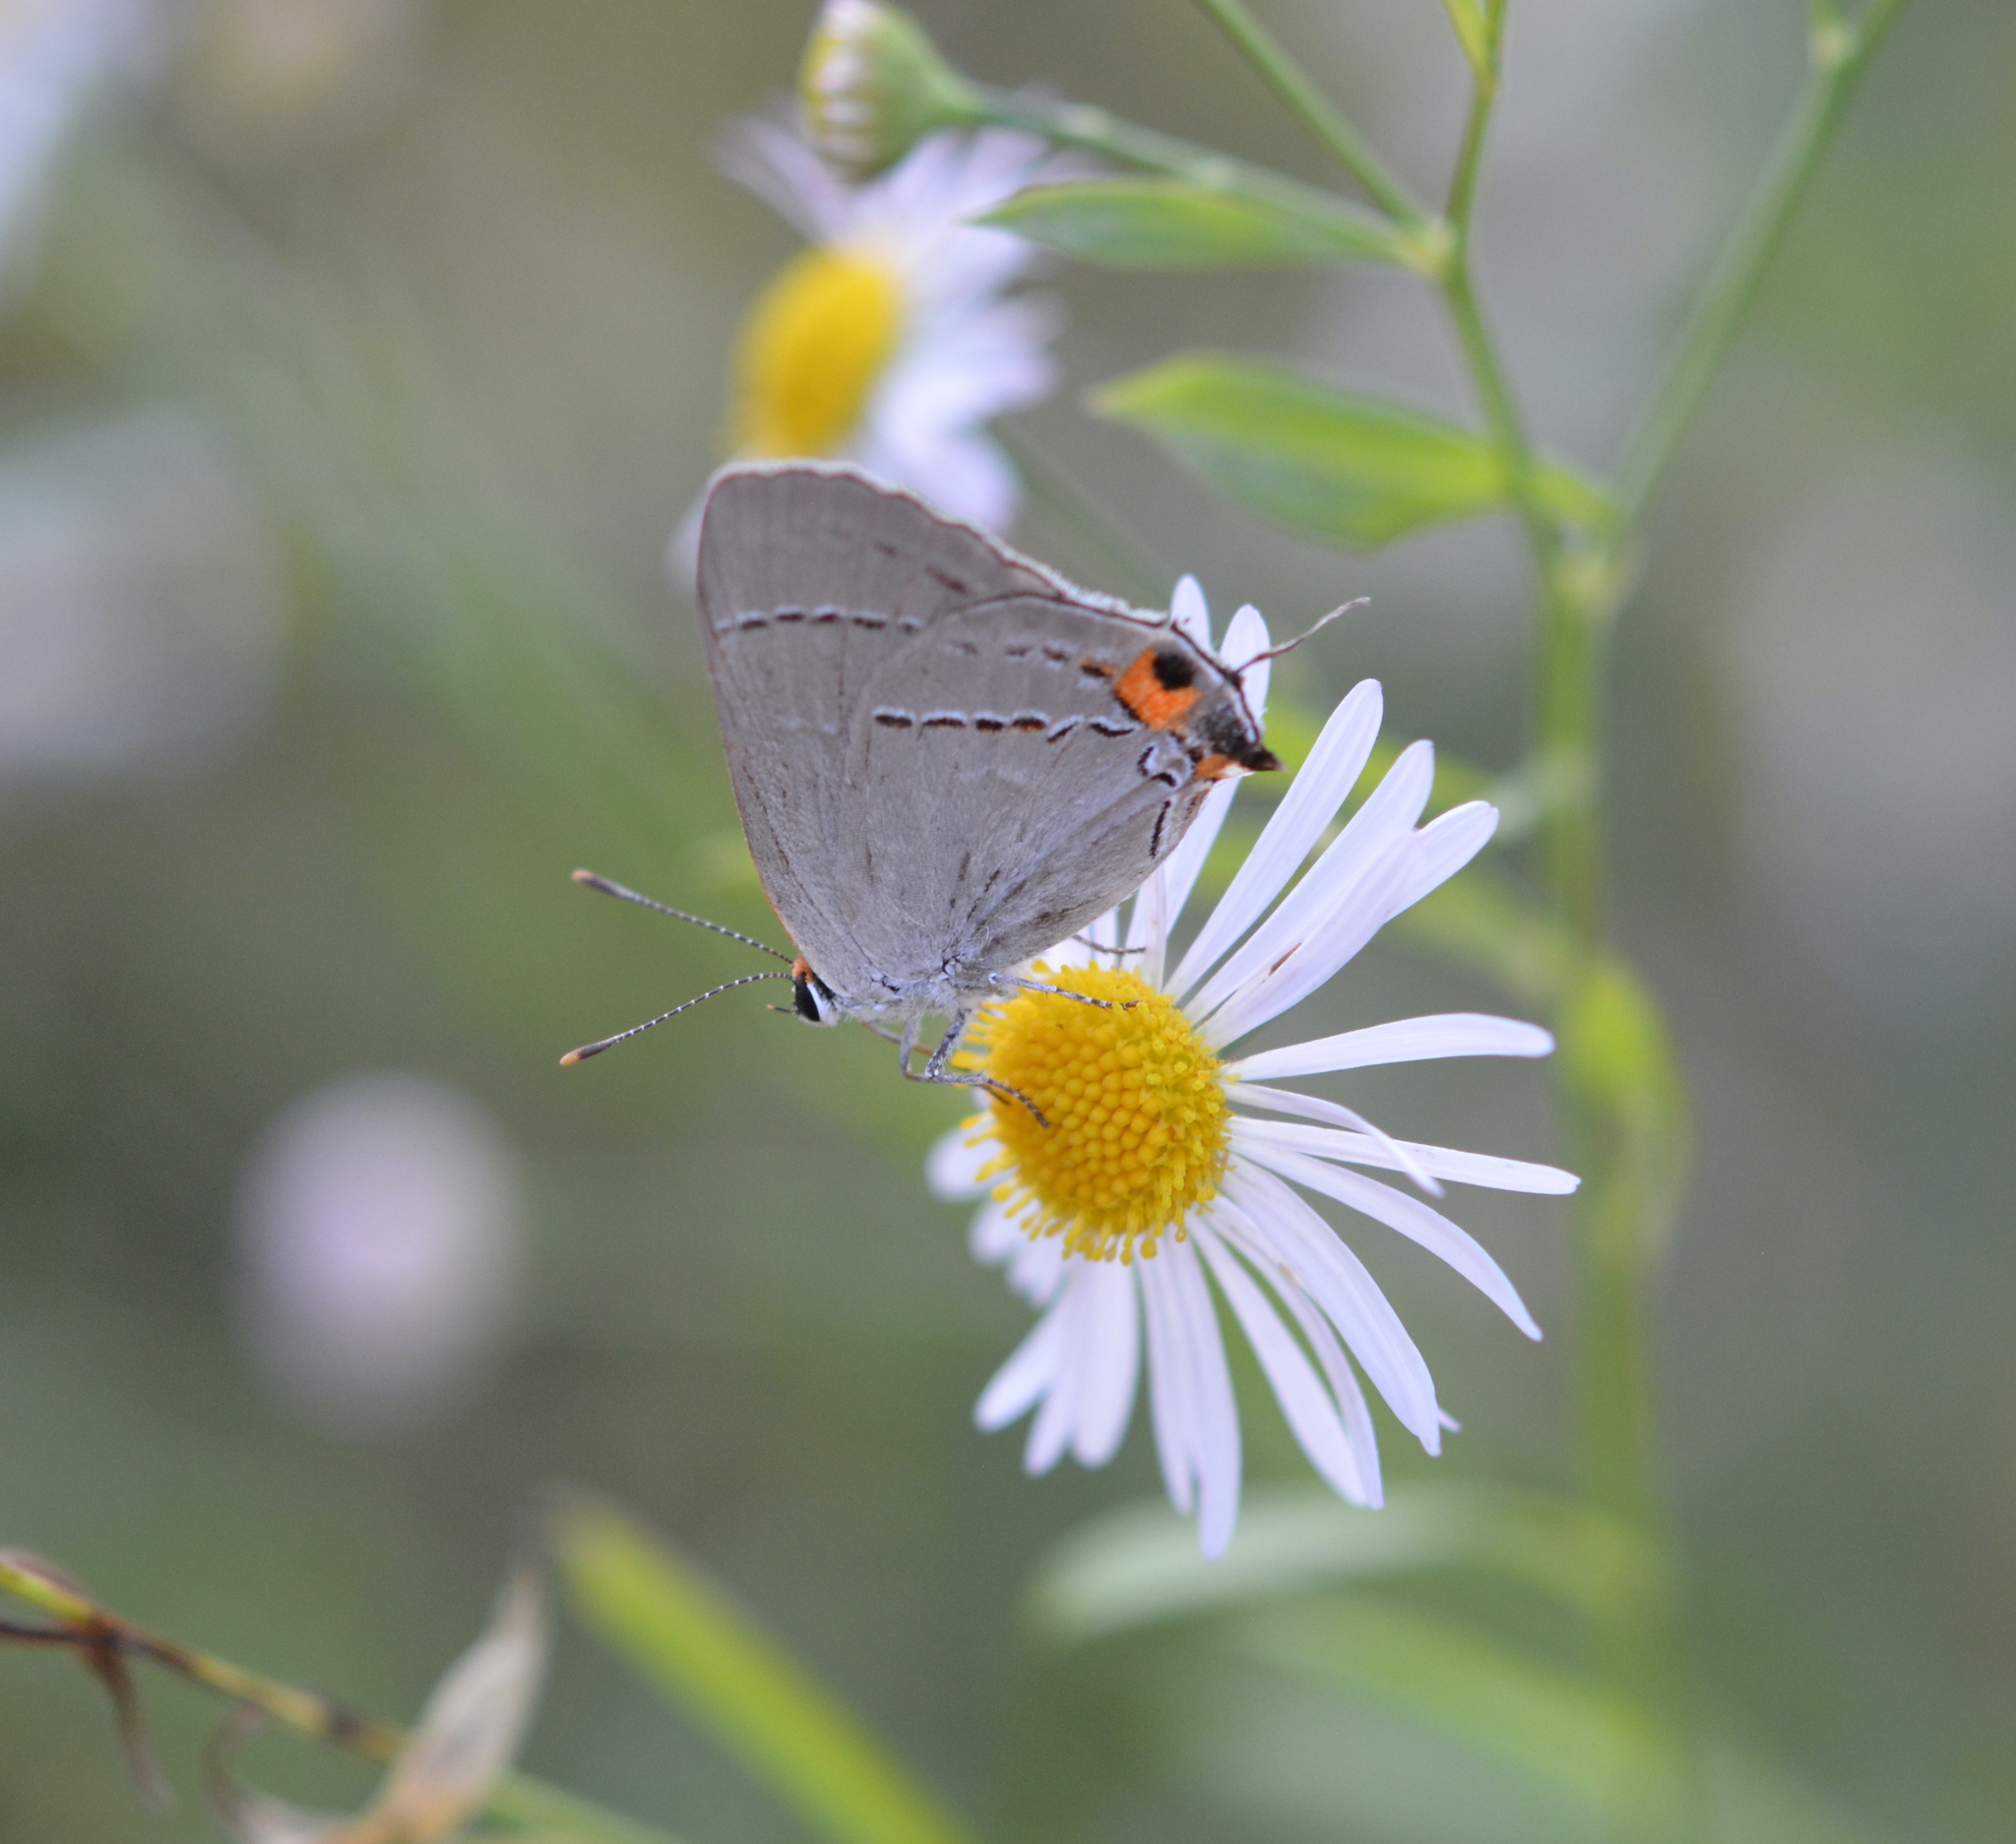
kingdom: Animalia
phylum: Arthropoda
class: Insecta
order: Lepidoptera
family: Lycaenidae
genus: Strymon
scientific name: Strymon melinus
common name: Gray hairstreak
